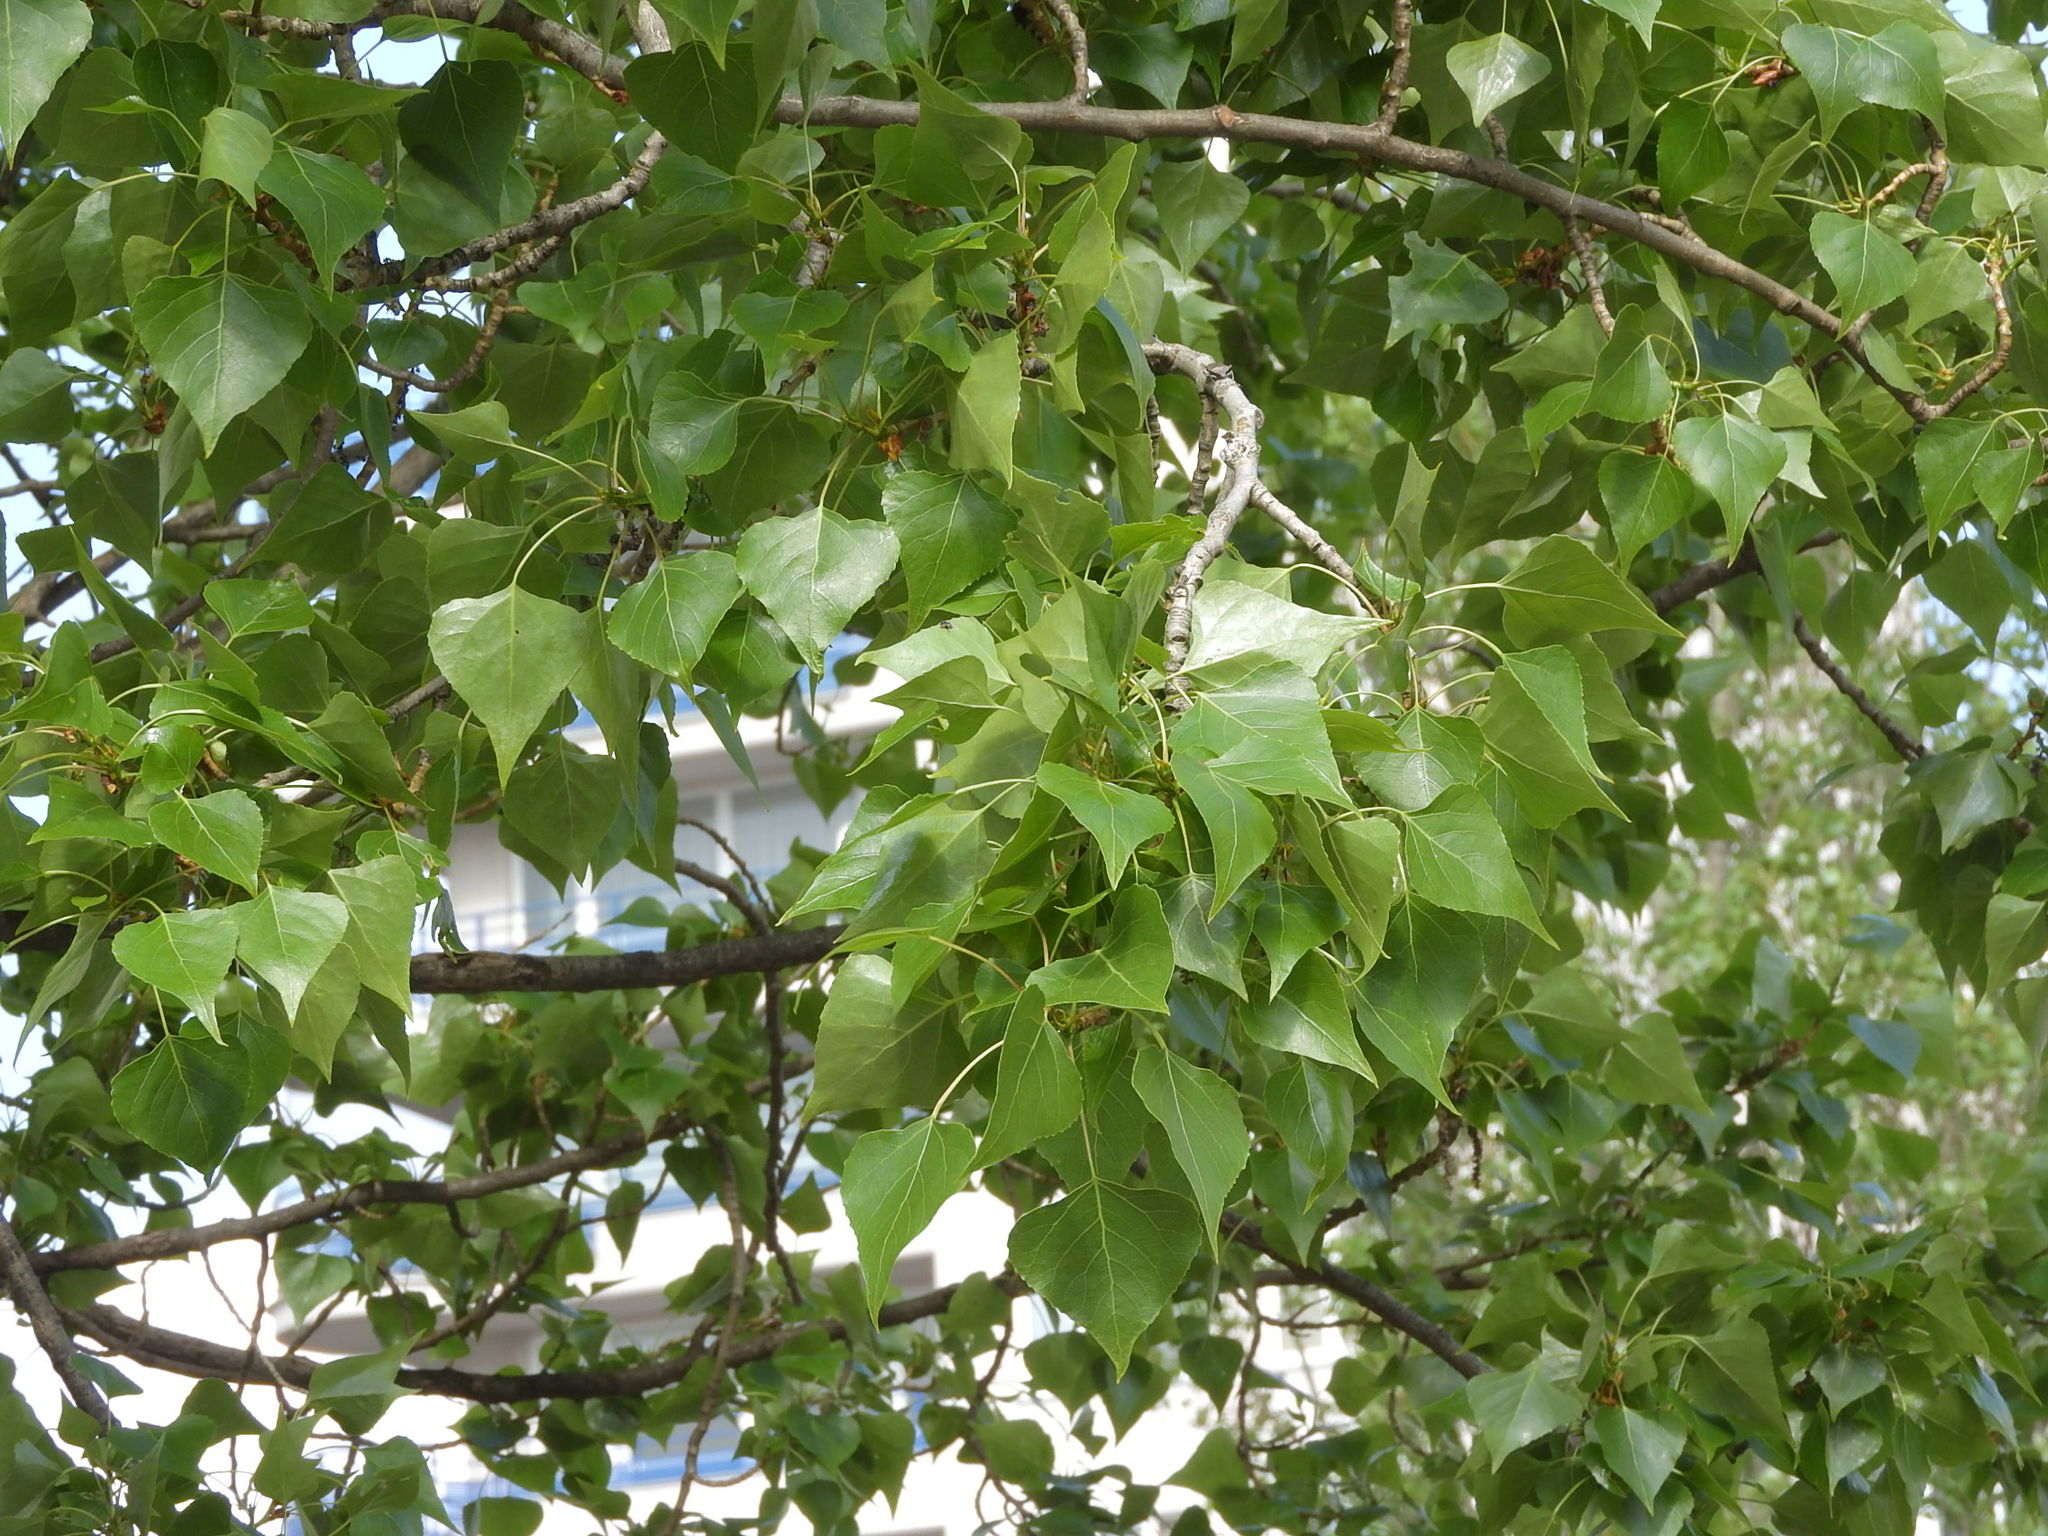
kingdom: Plantae
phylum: Tracheophyta
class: Magnoliopsida
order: Malpighiales
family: Salicaceae
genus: Populus
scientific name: Populus nigra
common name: Black poplar
